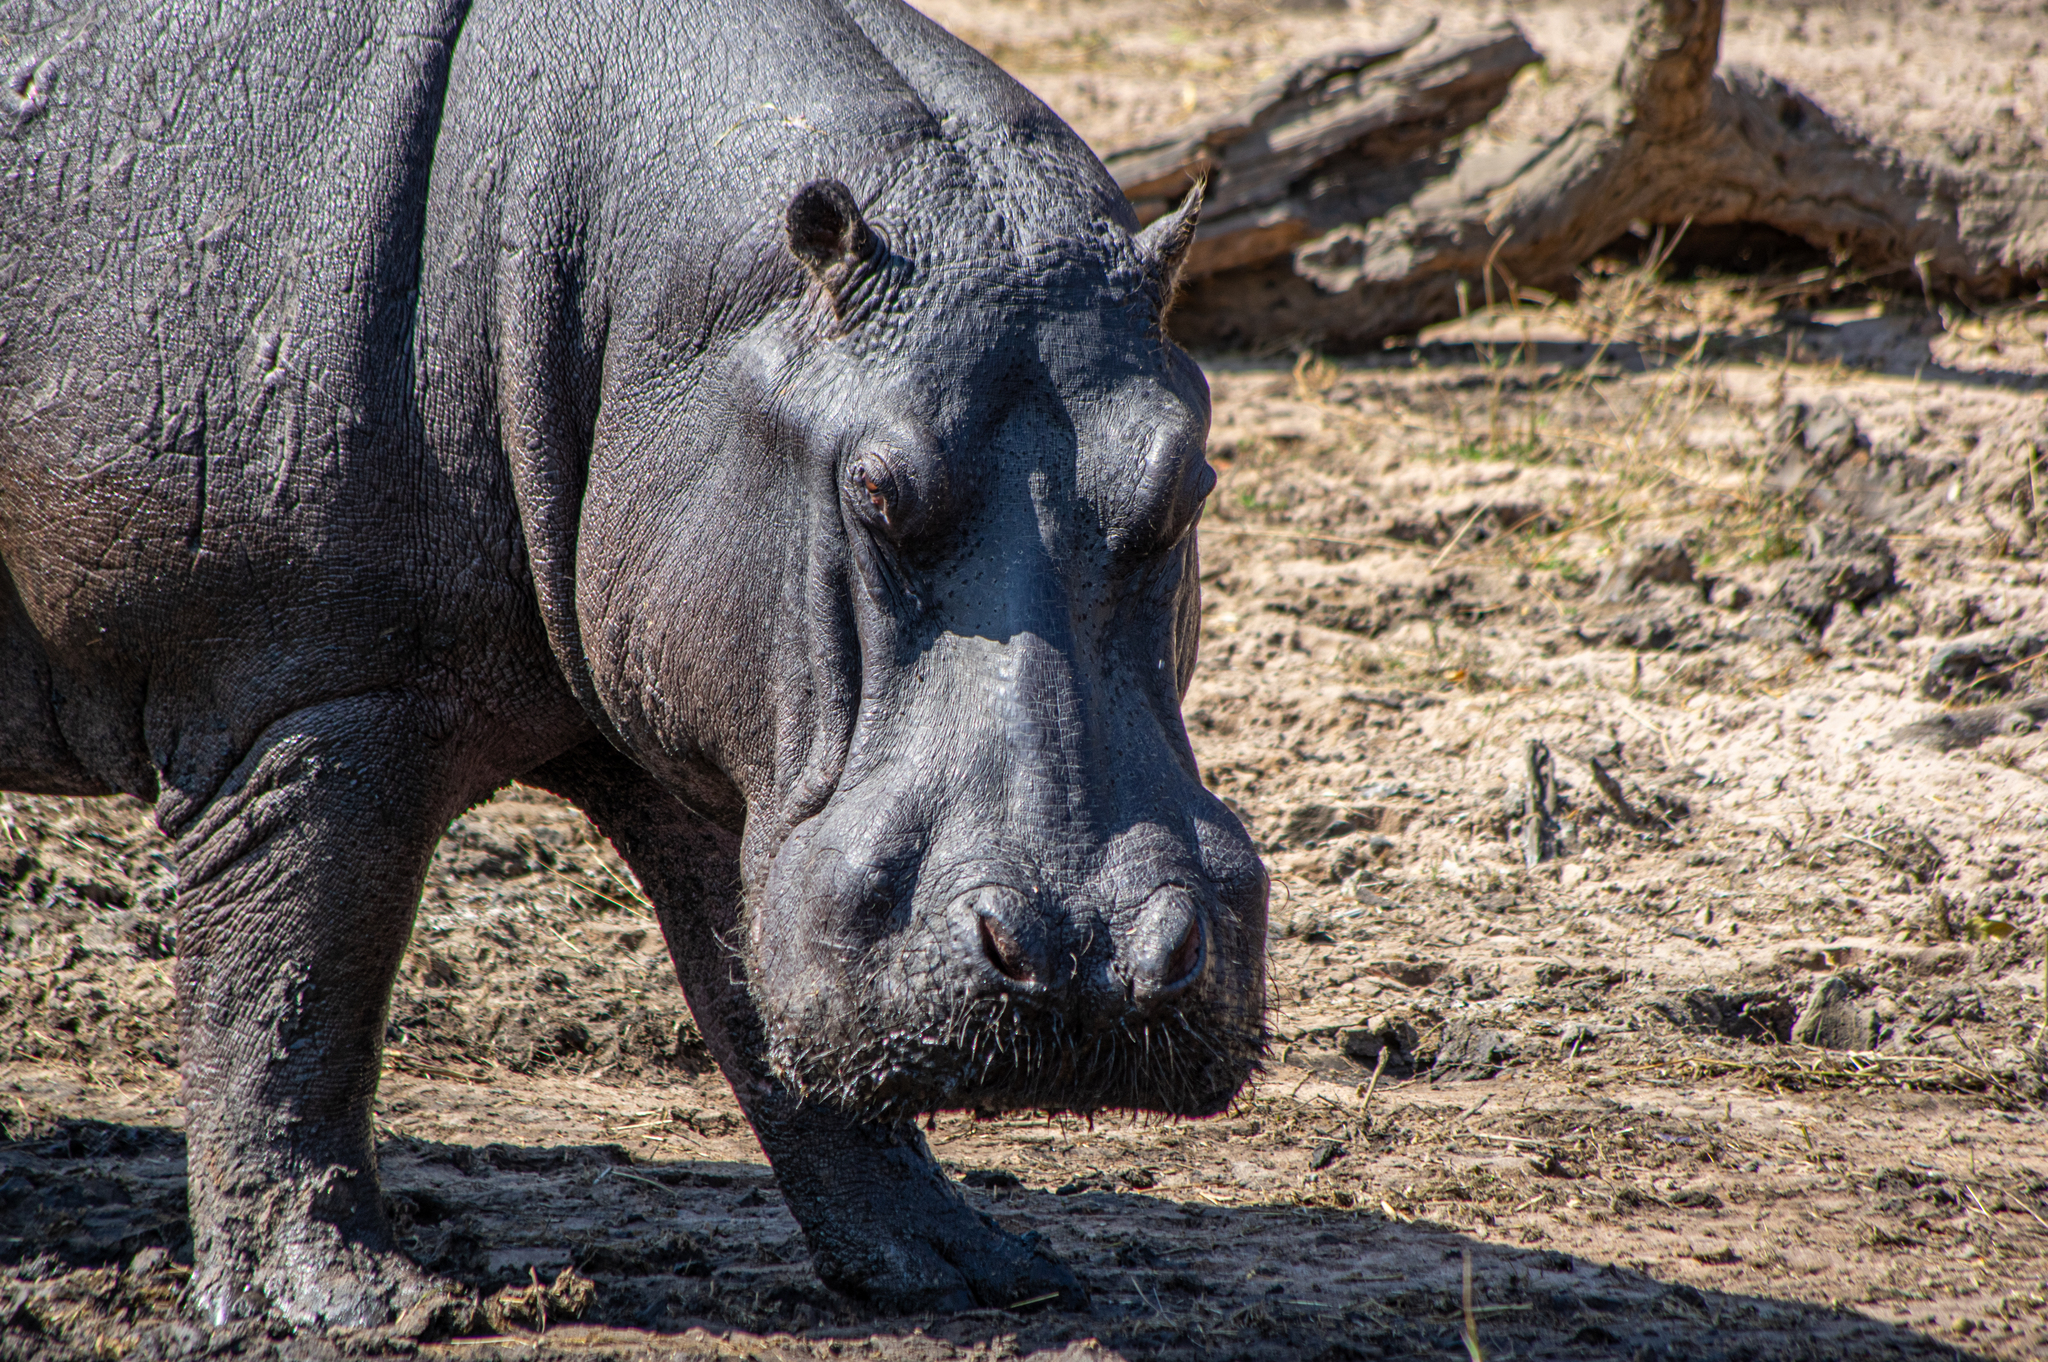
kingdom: Animalia
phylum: Chordata
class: Mammalia
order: Artiodactyla
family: Hippopotamidae
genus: Hippopotamus
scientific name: Hippopotamus amphibius
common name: Common hippopotamus
